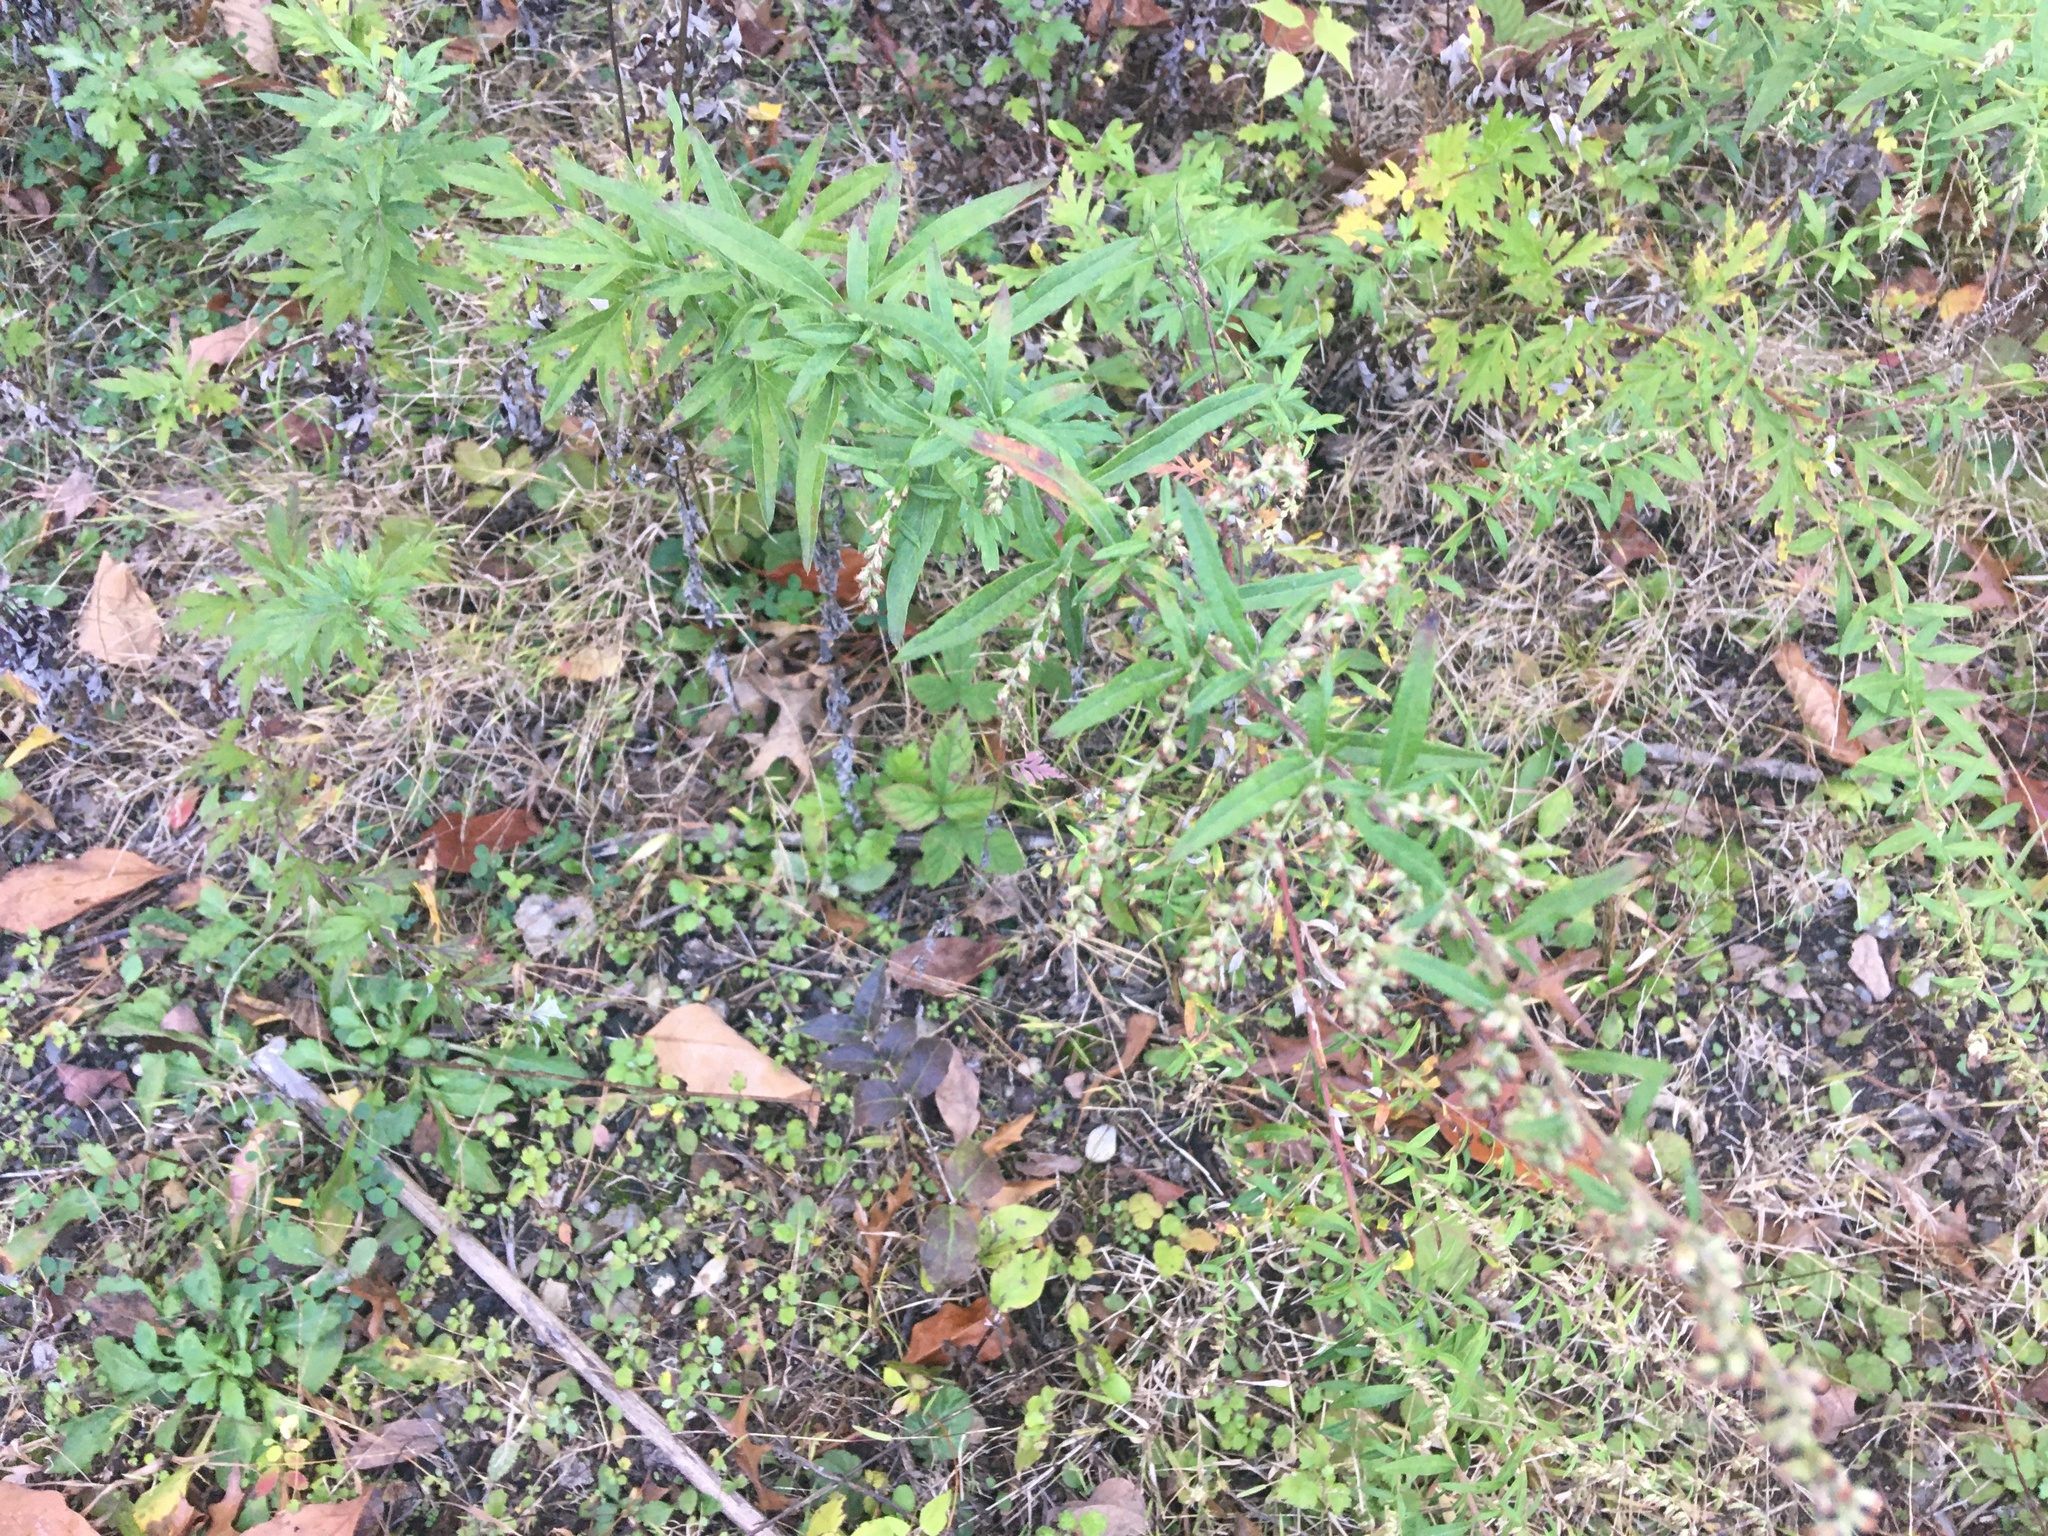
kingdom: Plantae
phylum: Tracheophyta
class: Magnoliopsida
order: Asterales
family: Asteraceae
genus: Artemisia
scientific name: Artemisia vulgaris
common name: Mugwort
